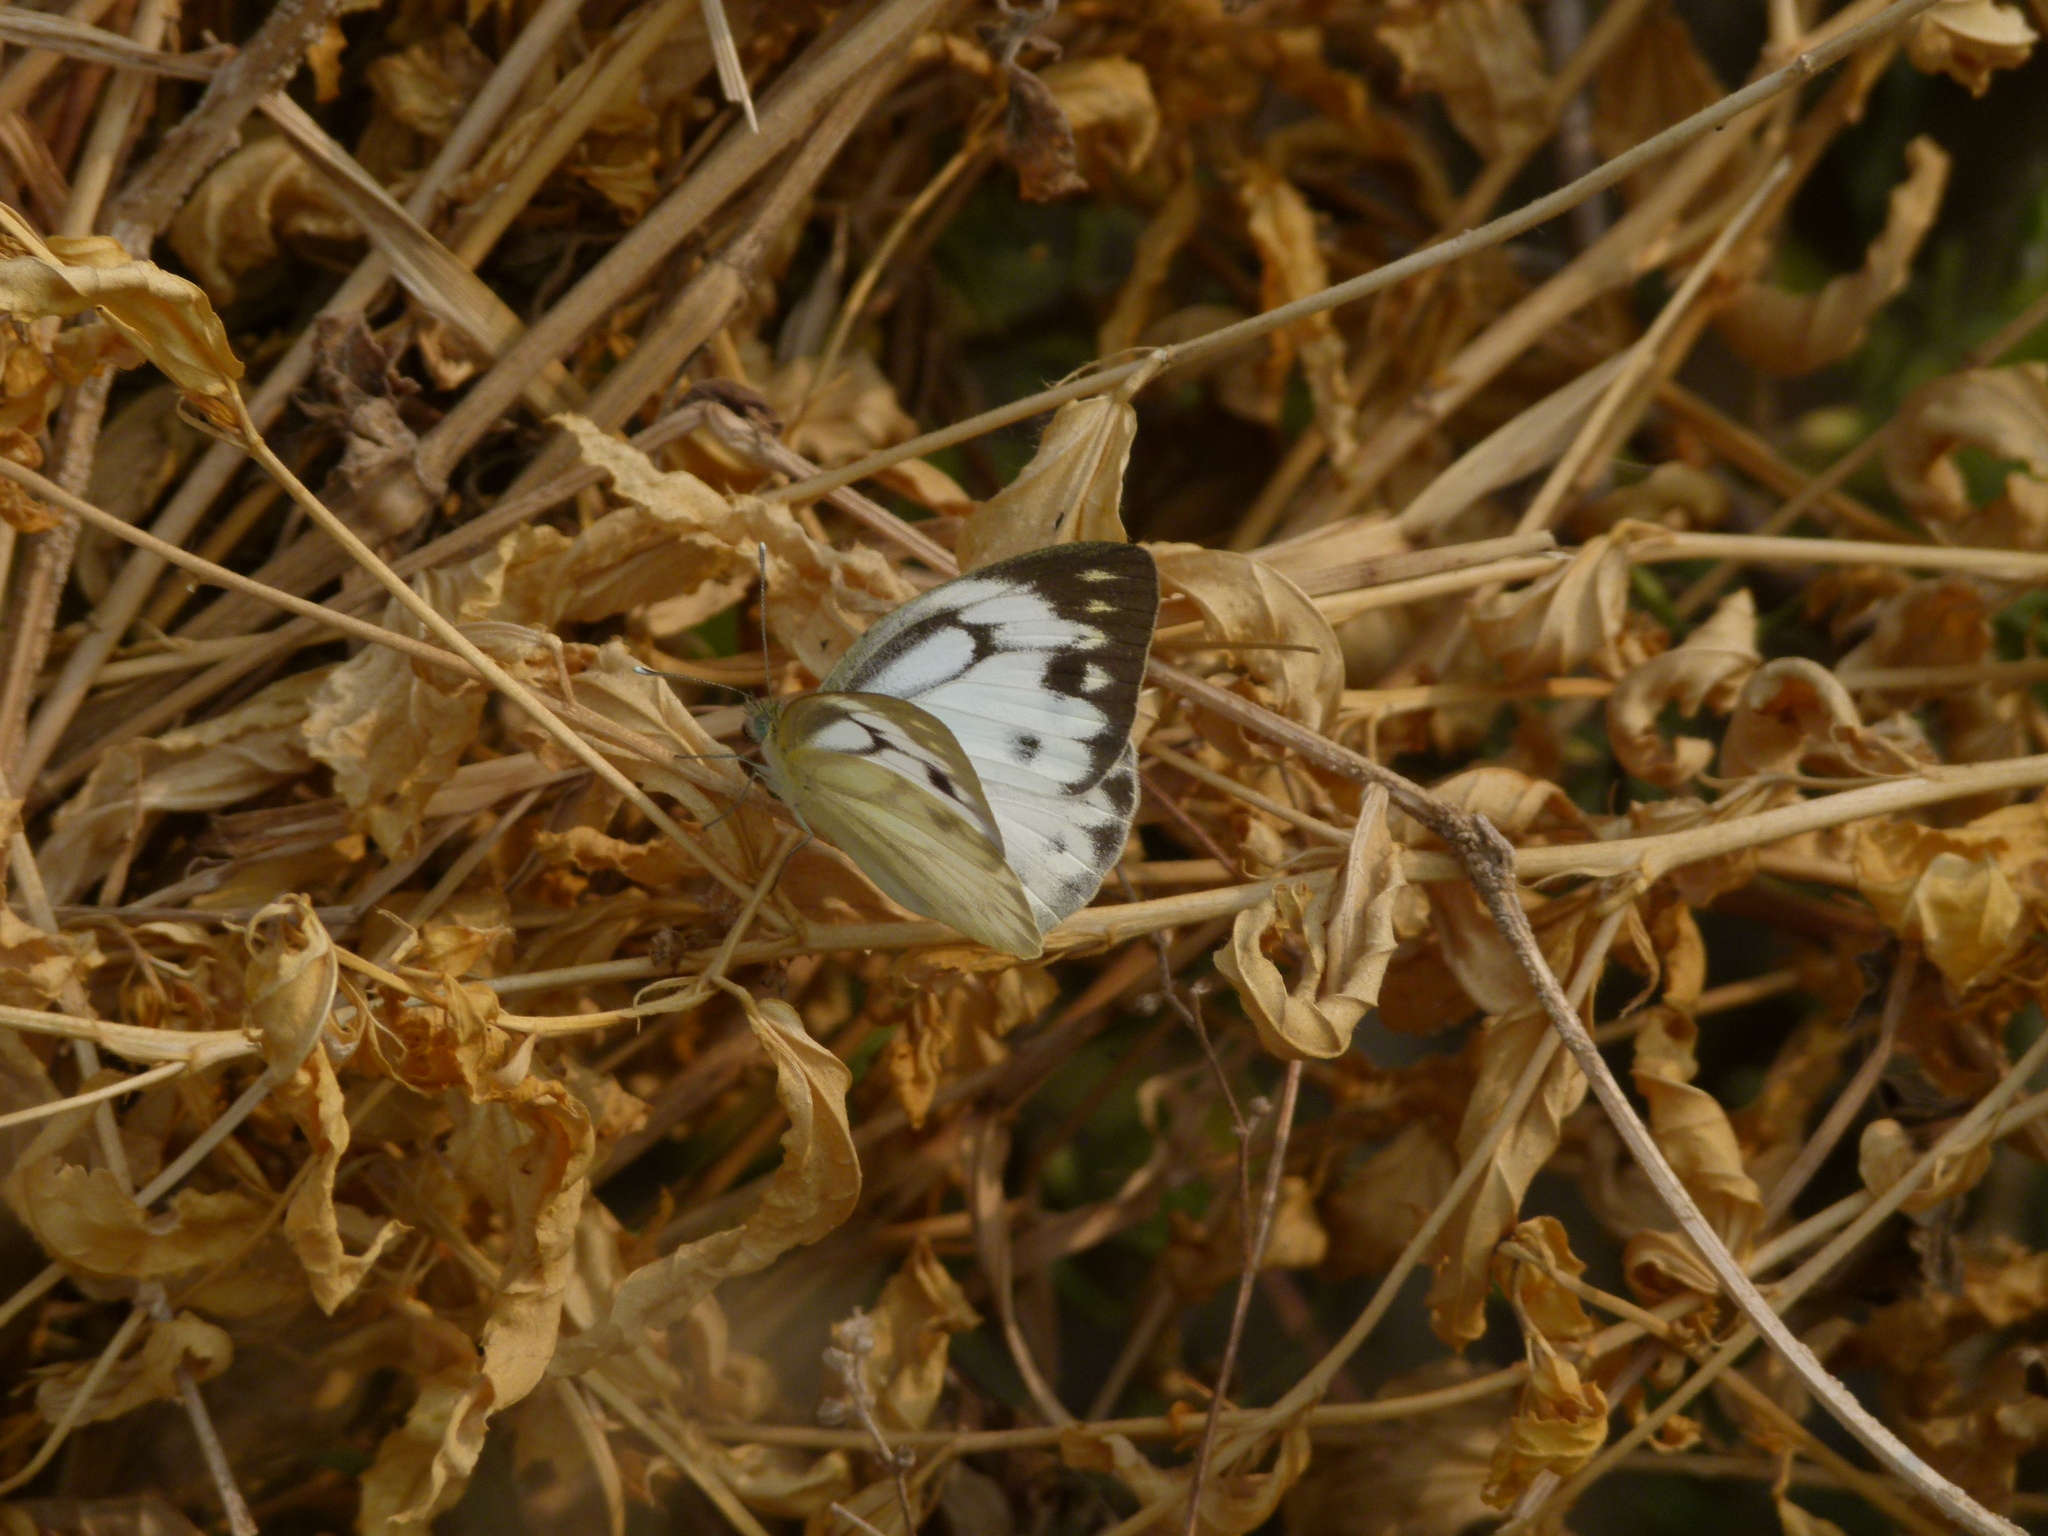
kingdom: Animalia
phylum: Arthropoda
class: Insecta
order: Lepidoptera
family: Pieridae
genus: Cepora
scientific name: Cepora nerissa
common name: Common gull
